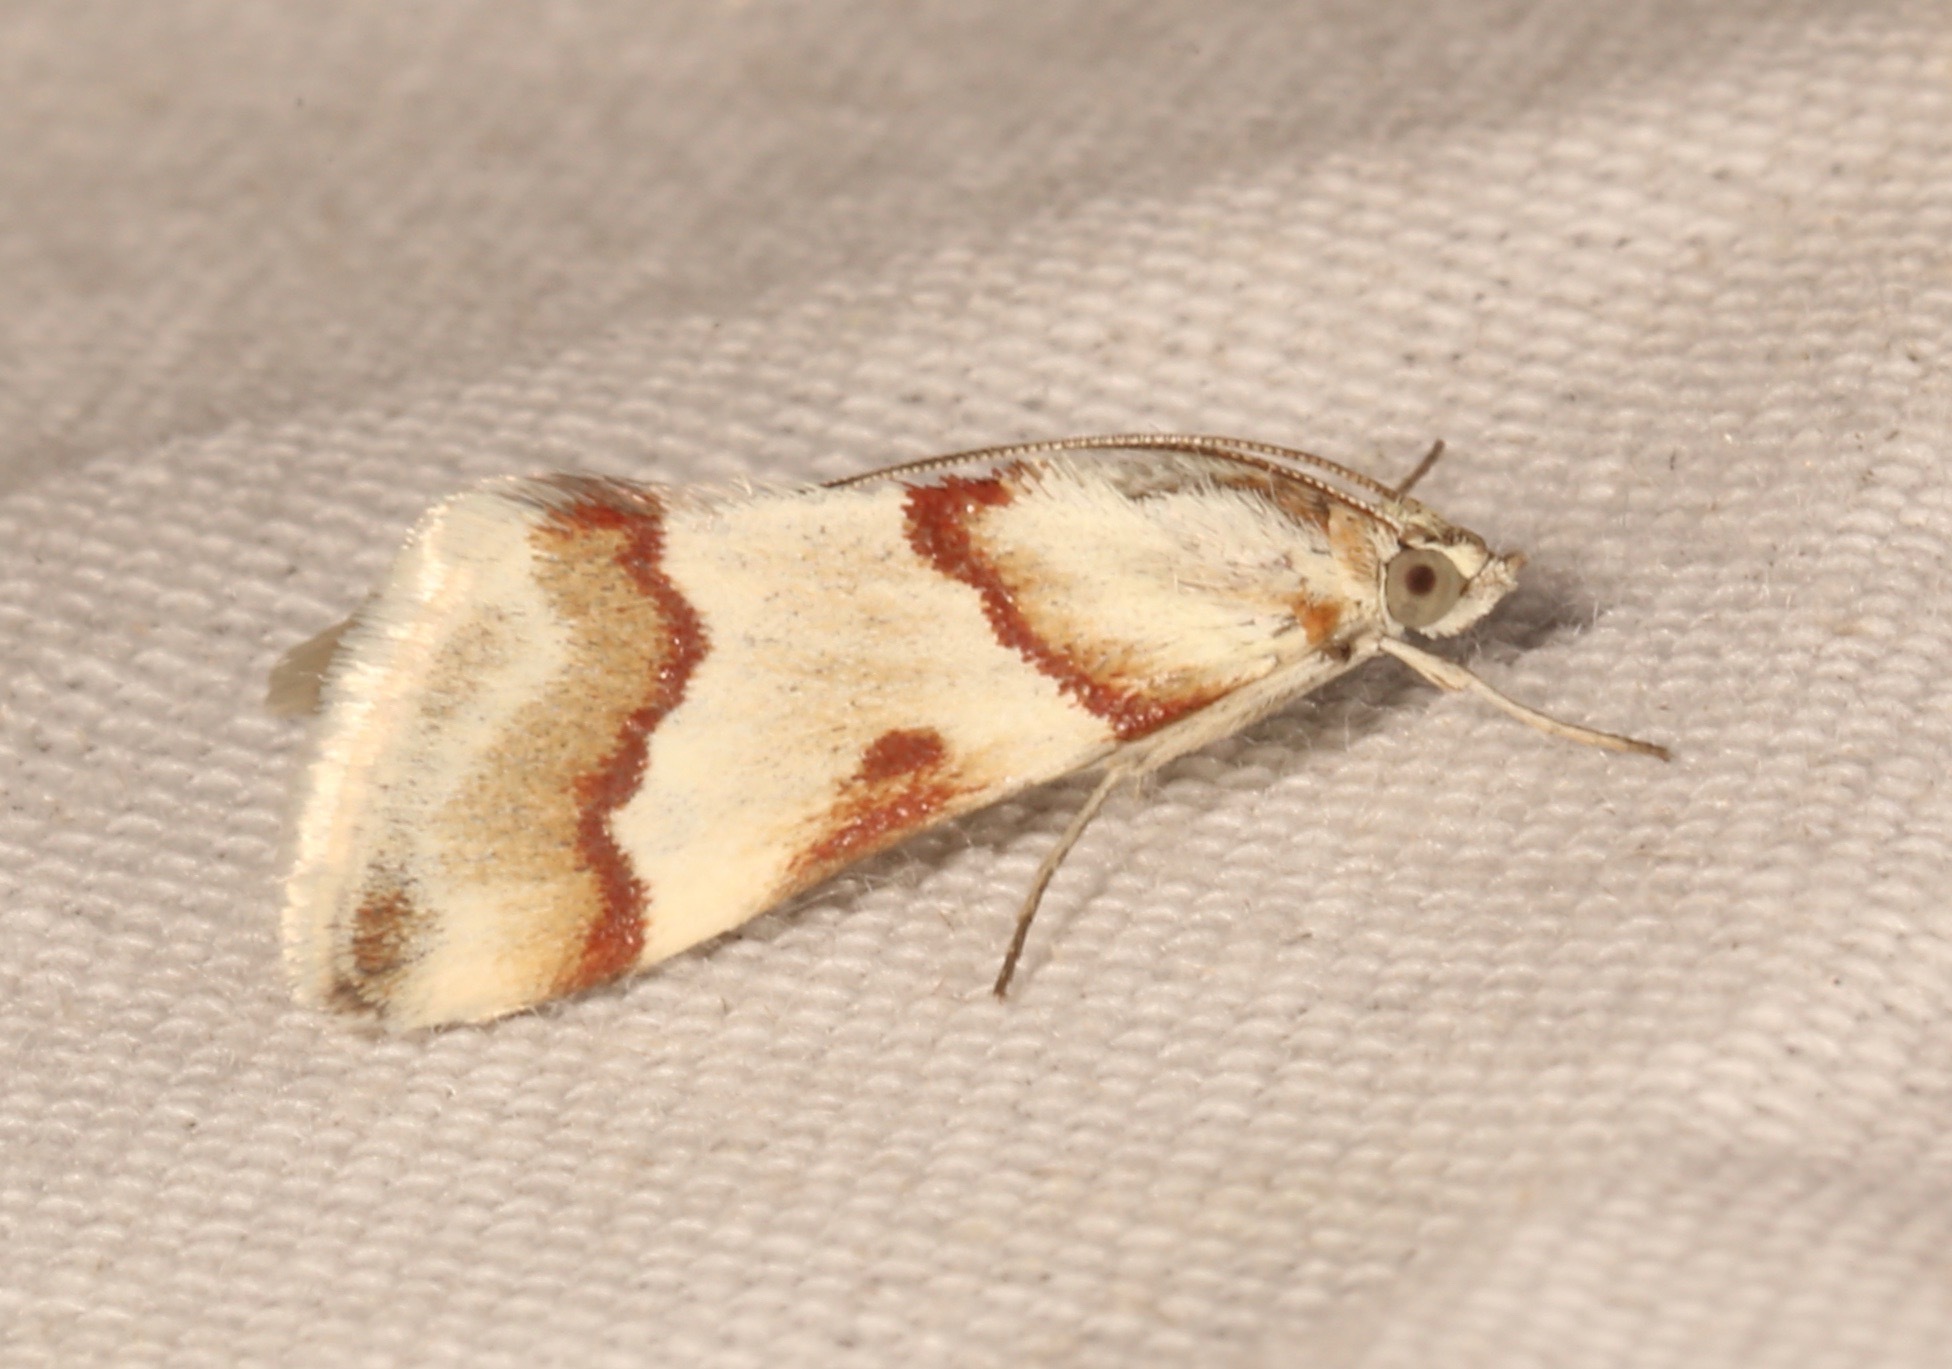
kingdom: Animalia
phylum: Arthropoda
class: Insecta
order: Lepidoptera
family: Crambidae
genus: Noctuelia
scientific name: Noctuelia Mimoschinia rufofascialis
